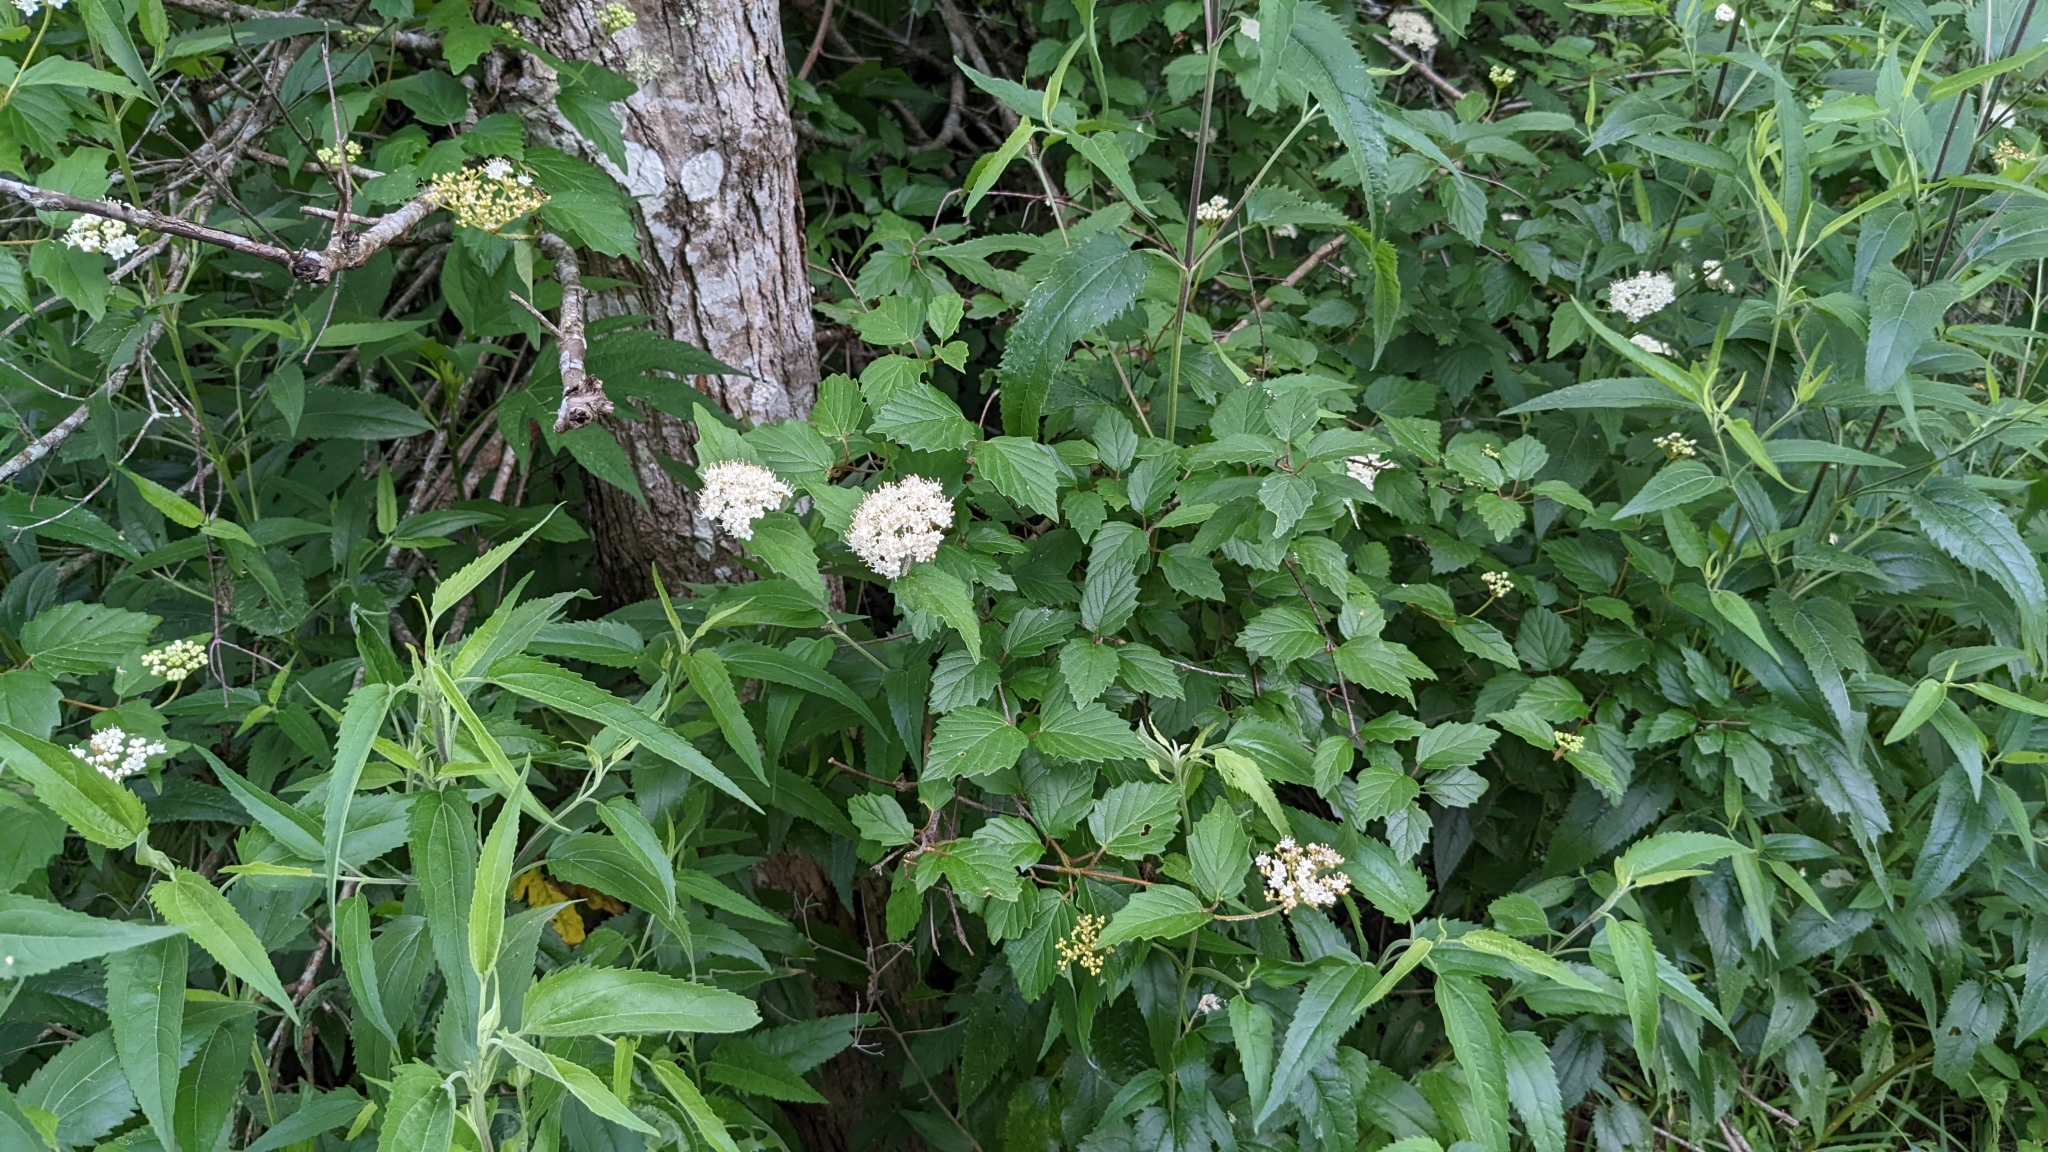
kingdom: Plantae
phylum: Tracheophyta
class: Magnoliopsida
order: Dipsacales
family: Viburnaceae
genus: Viburnum
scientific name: Viburnum scabrellum
